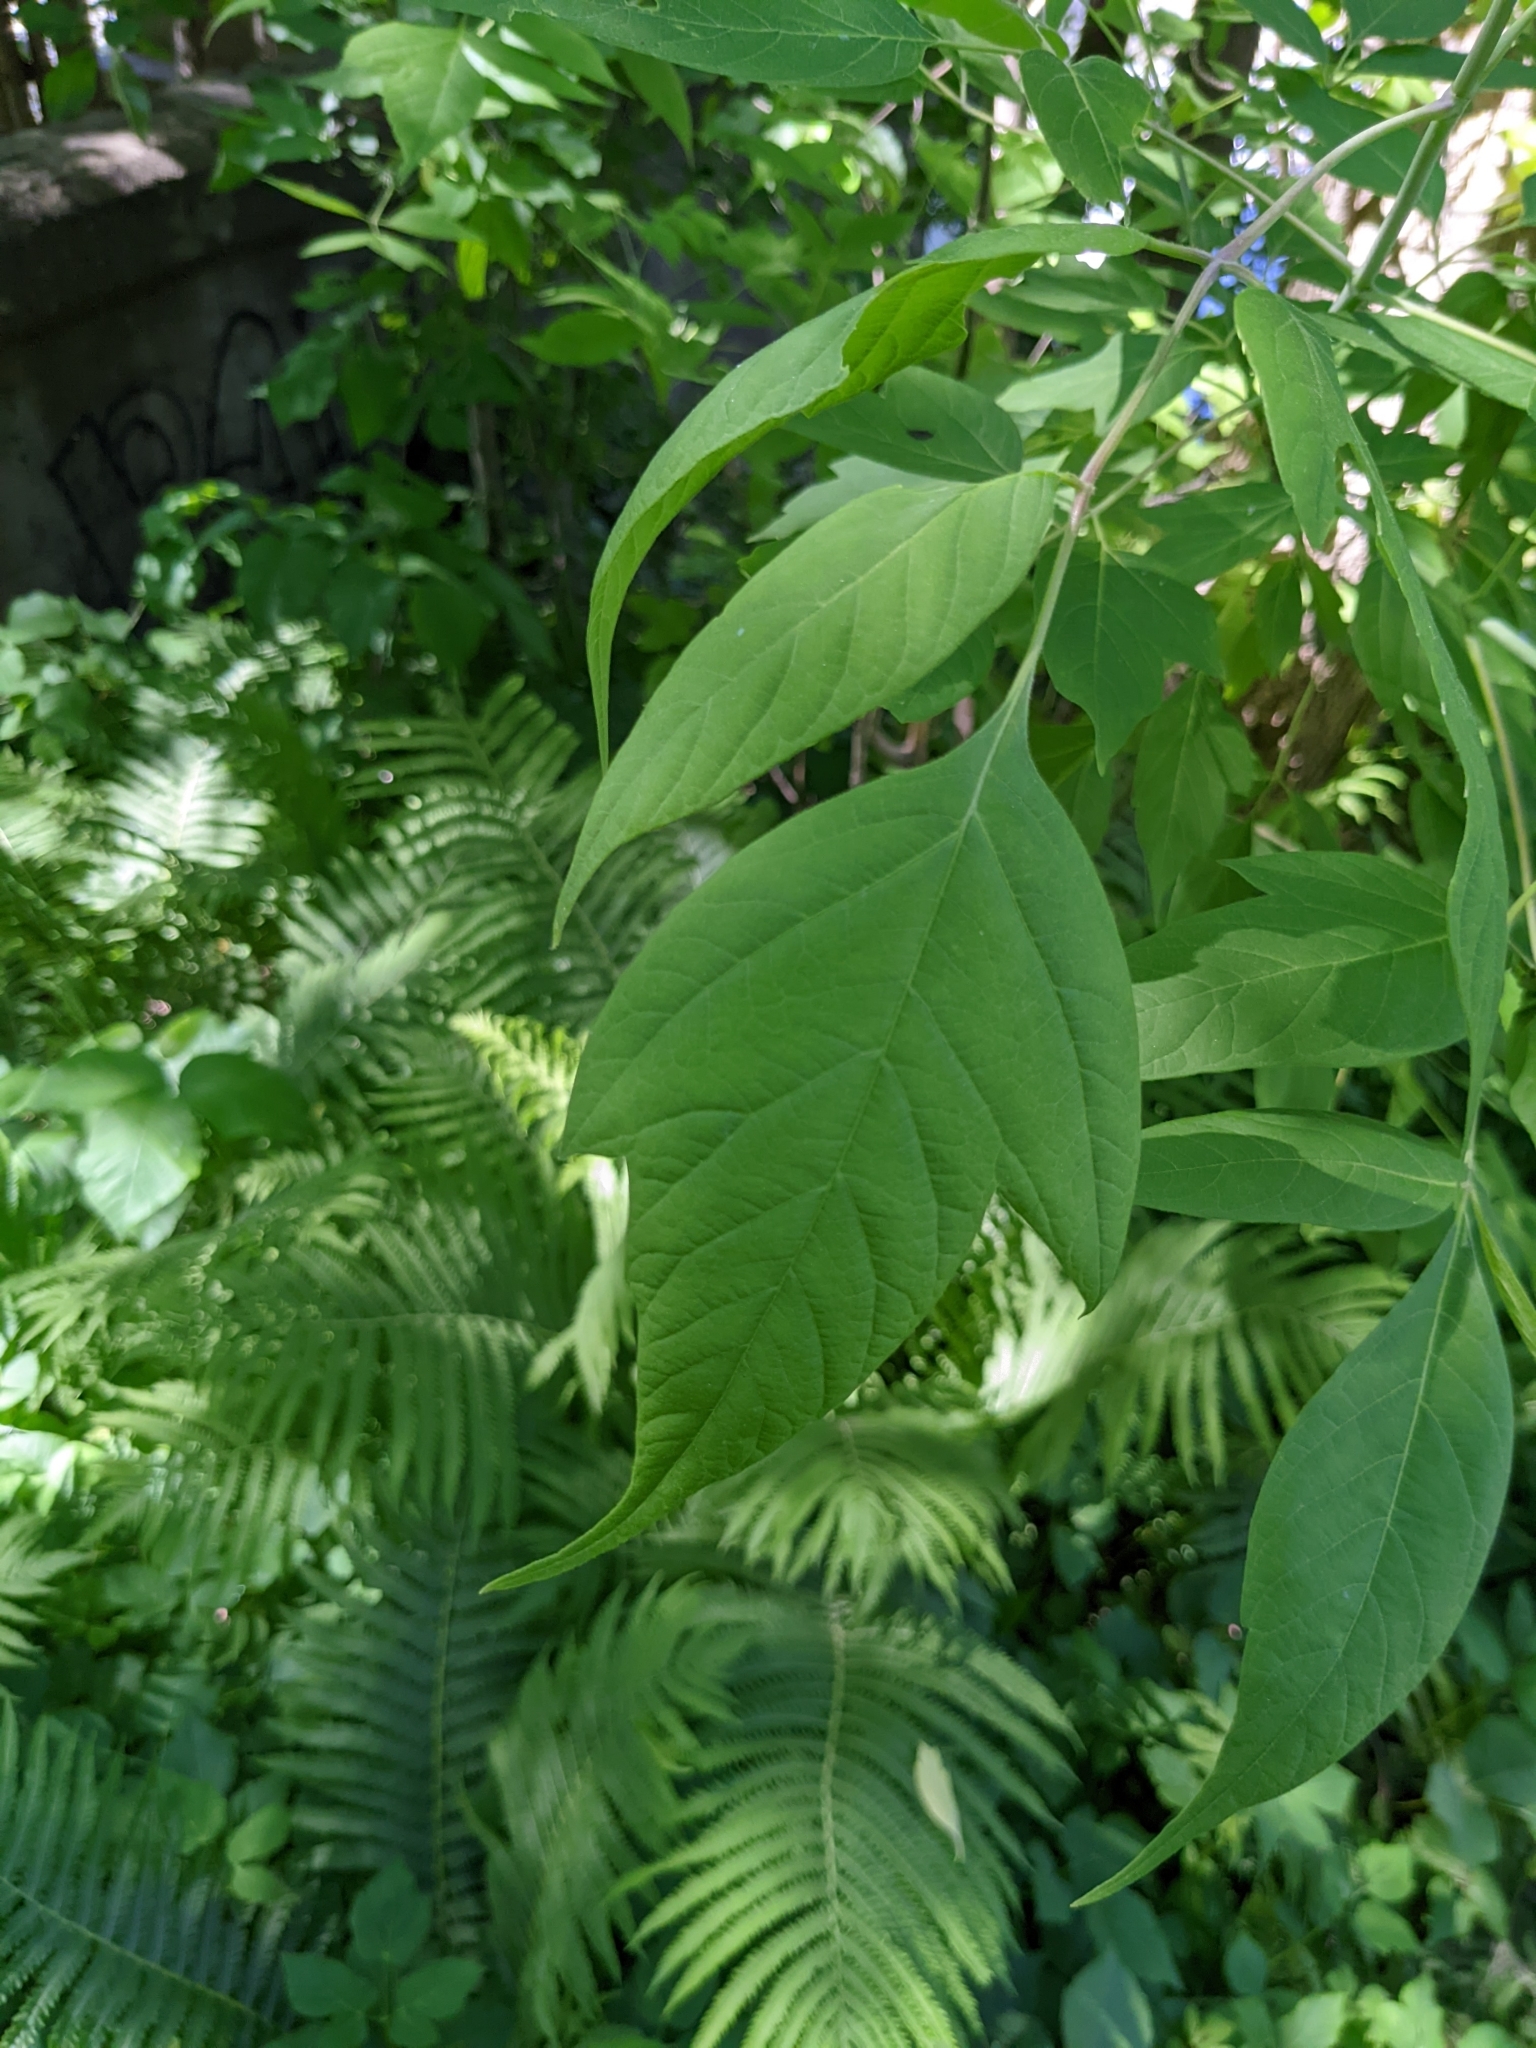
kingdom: Plantae
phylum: Tracheophyta
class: Magnoliopsida
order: Sapindales
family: Sapindaceae
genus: Acer
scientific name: Acer negundo
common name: Ashleaf maple
